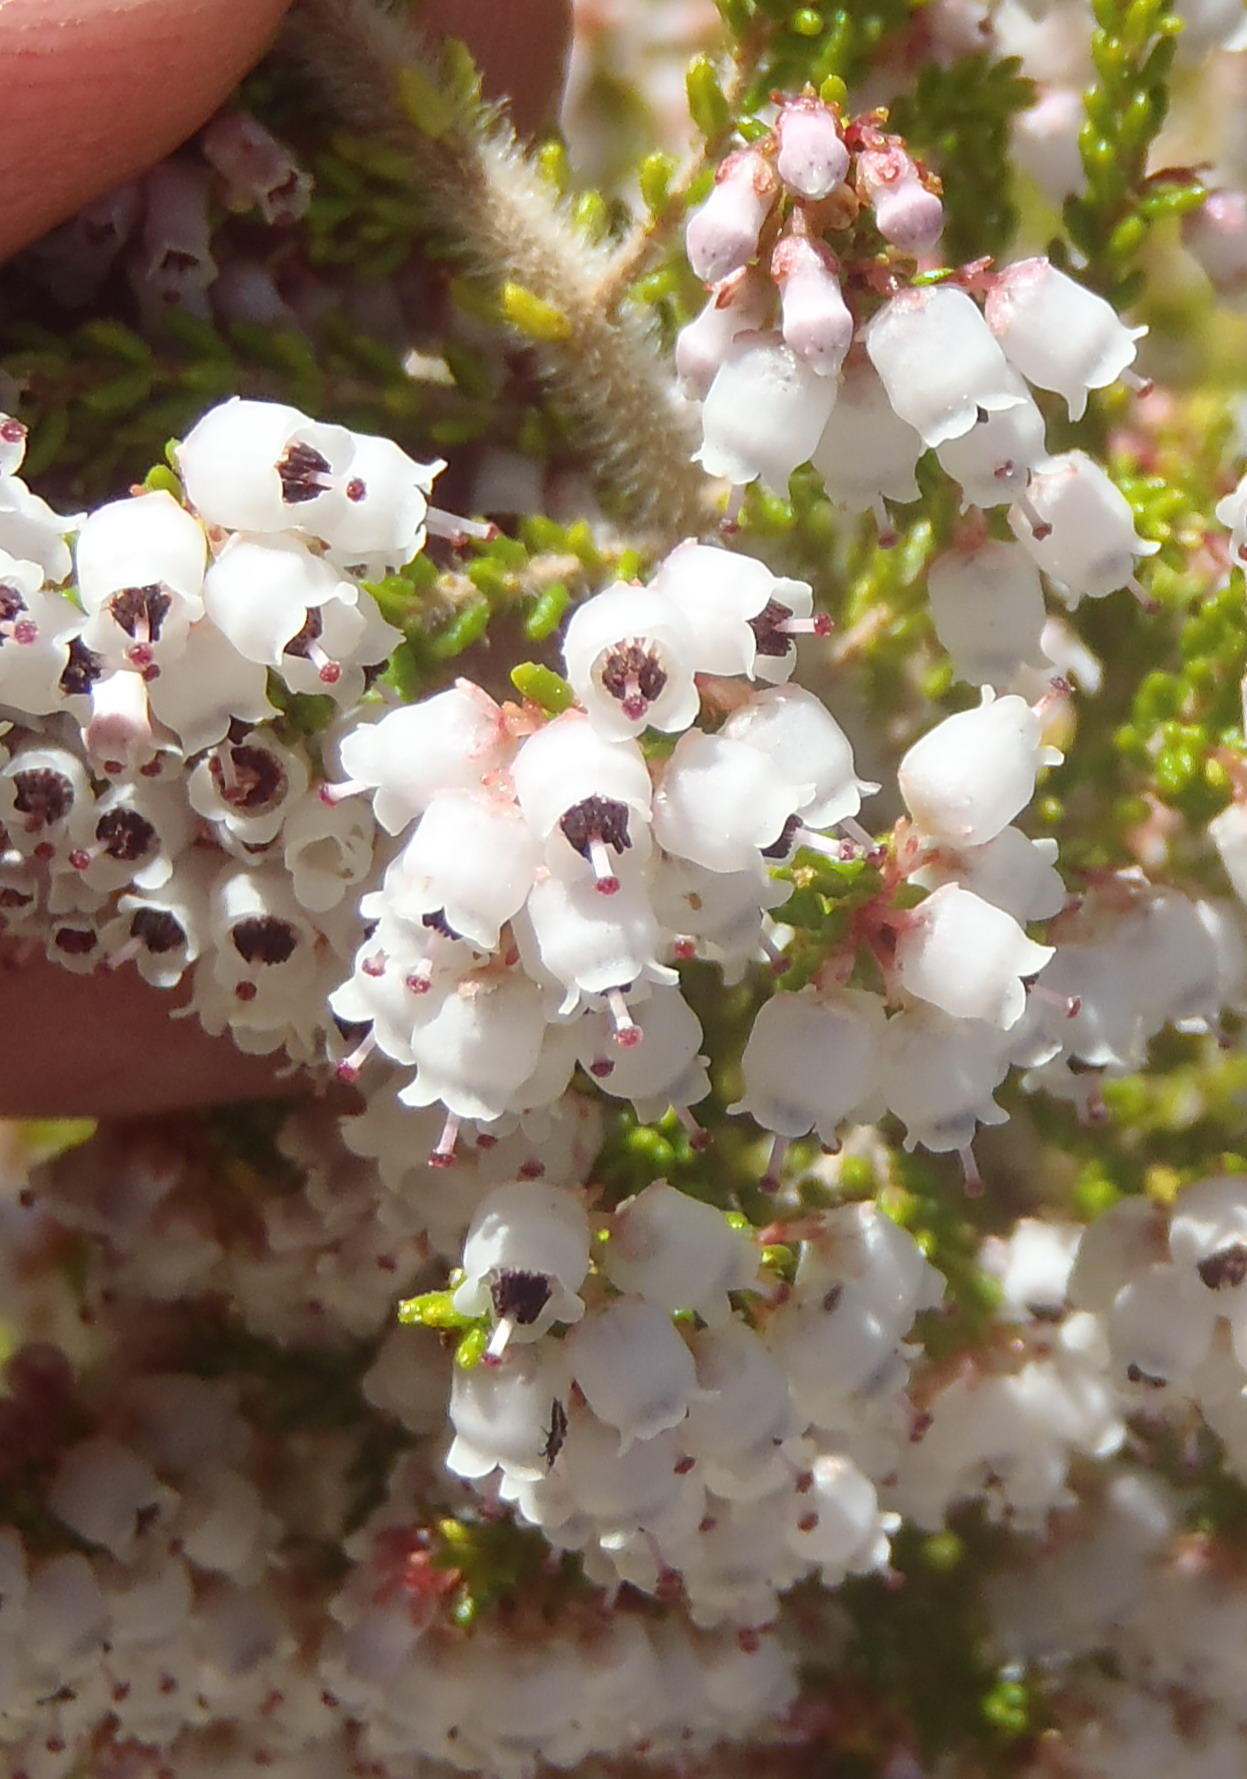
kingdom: Plantae
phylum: Tracheophyta
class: Magnoliopsida
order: Ericales
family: Ericaceae
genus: Erica
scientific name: Erica scabriuscula
